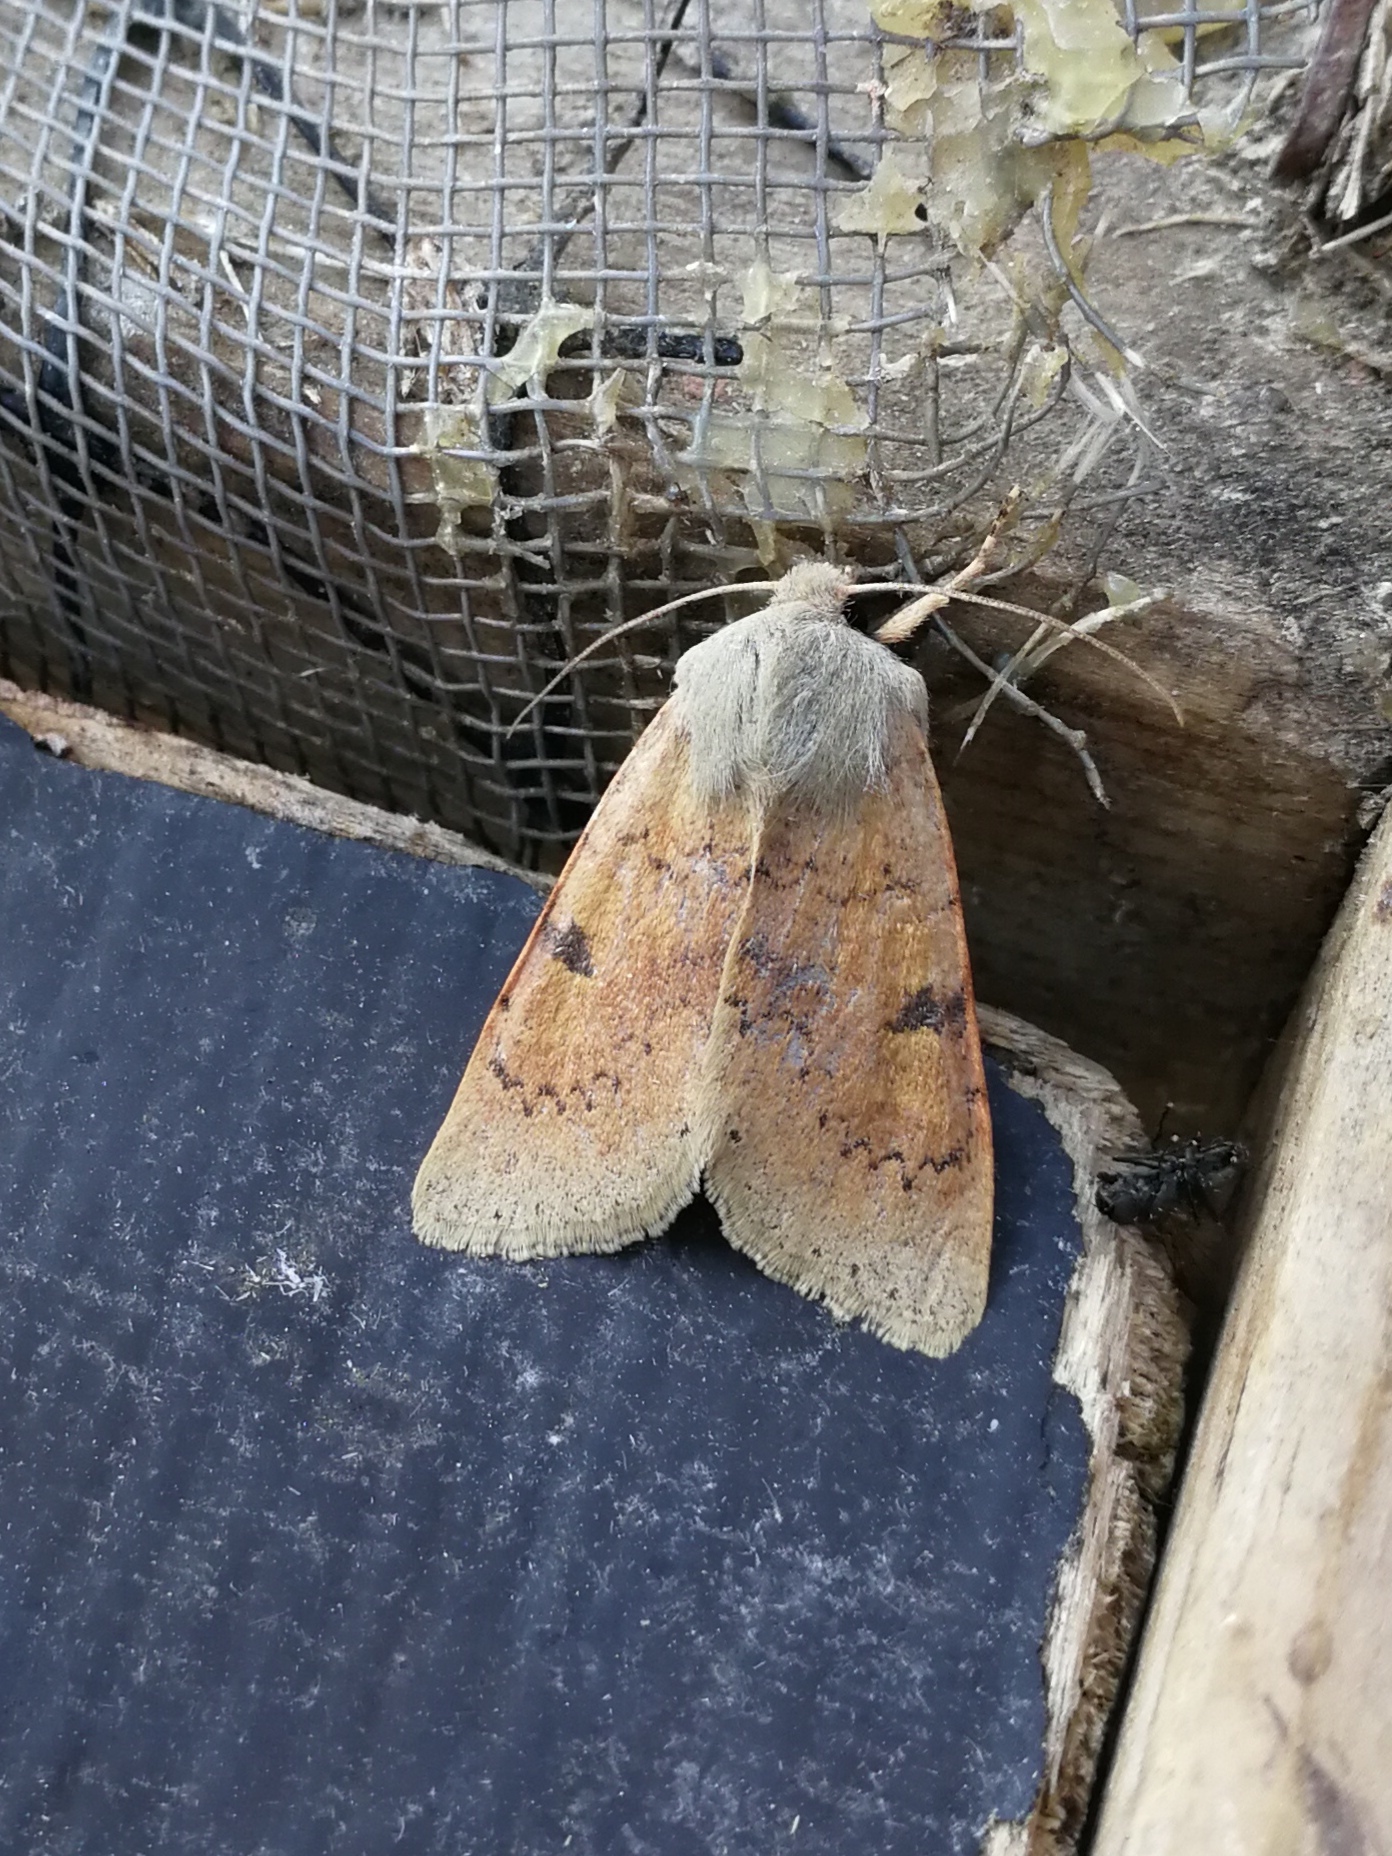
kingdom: Animalia
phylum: Arthropoda
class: Insecta
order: Lepidoptera
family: Noctuidae
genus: Ammopolia
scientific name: Ammopolia witzenmanni
